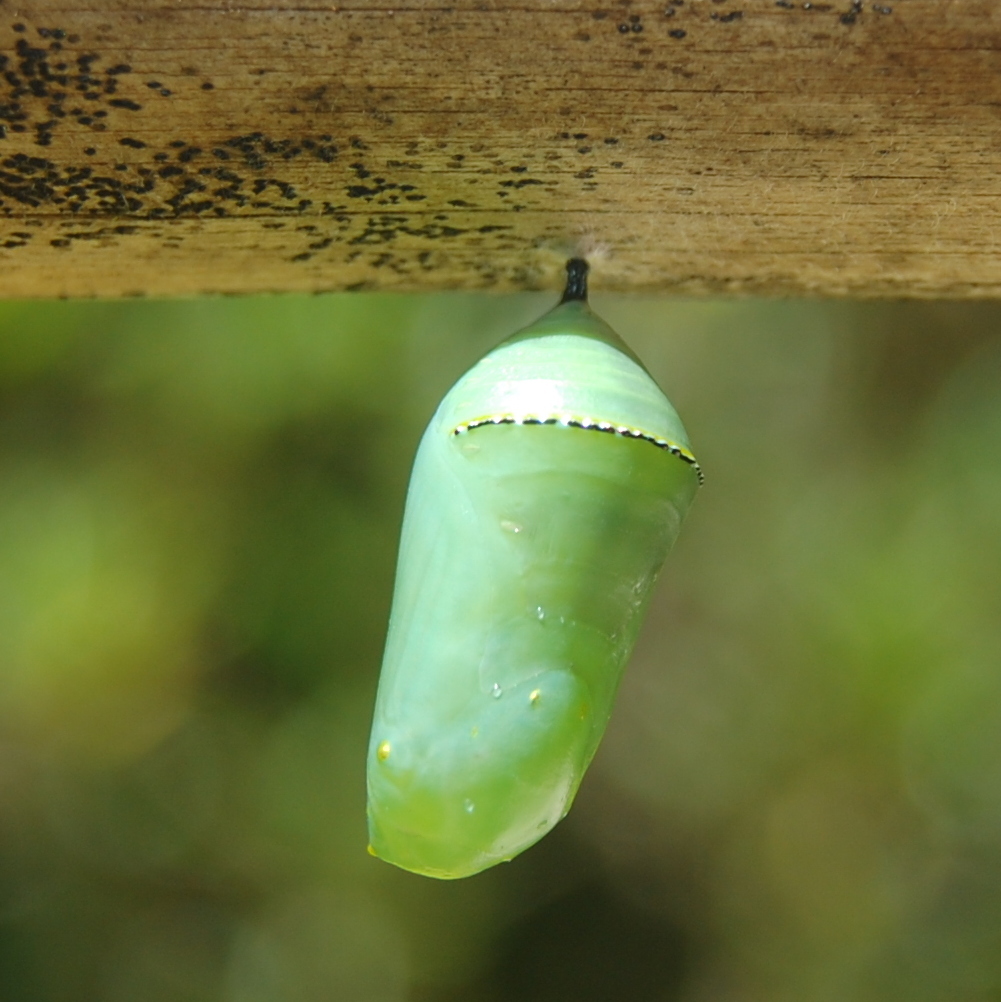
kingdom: Animalia
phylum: Arthropoda
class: Insecta
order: Lepidoptera
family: Nymphalidae
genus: Danaus
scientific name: Danaus erippus
